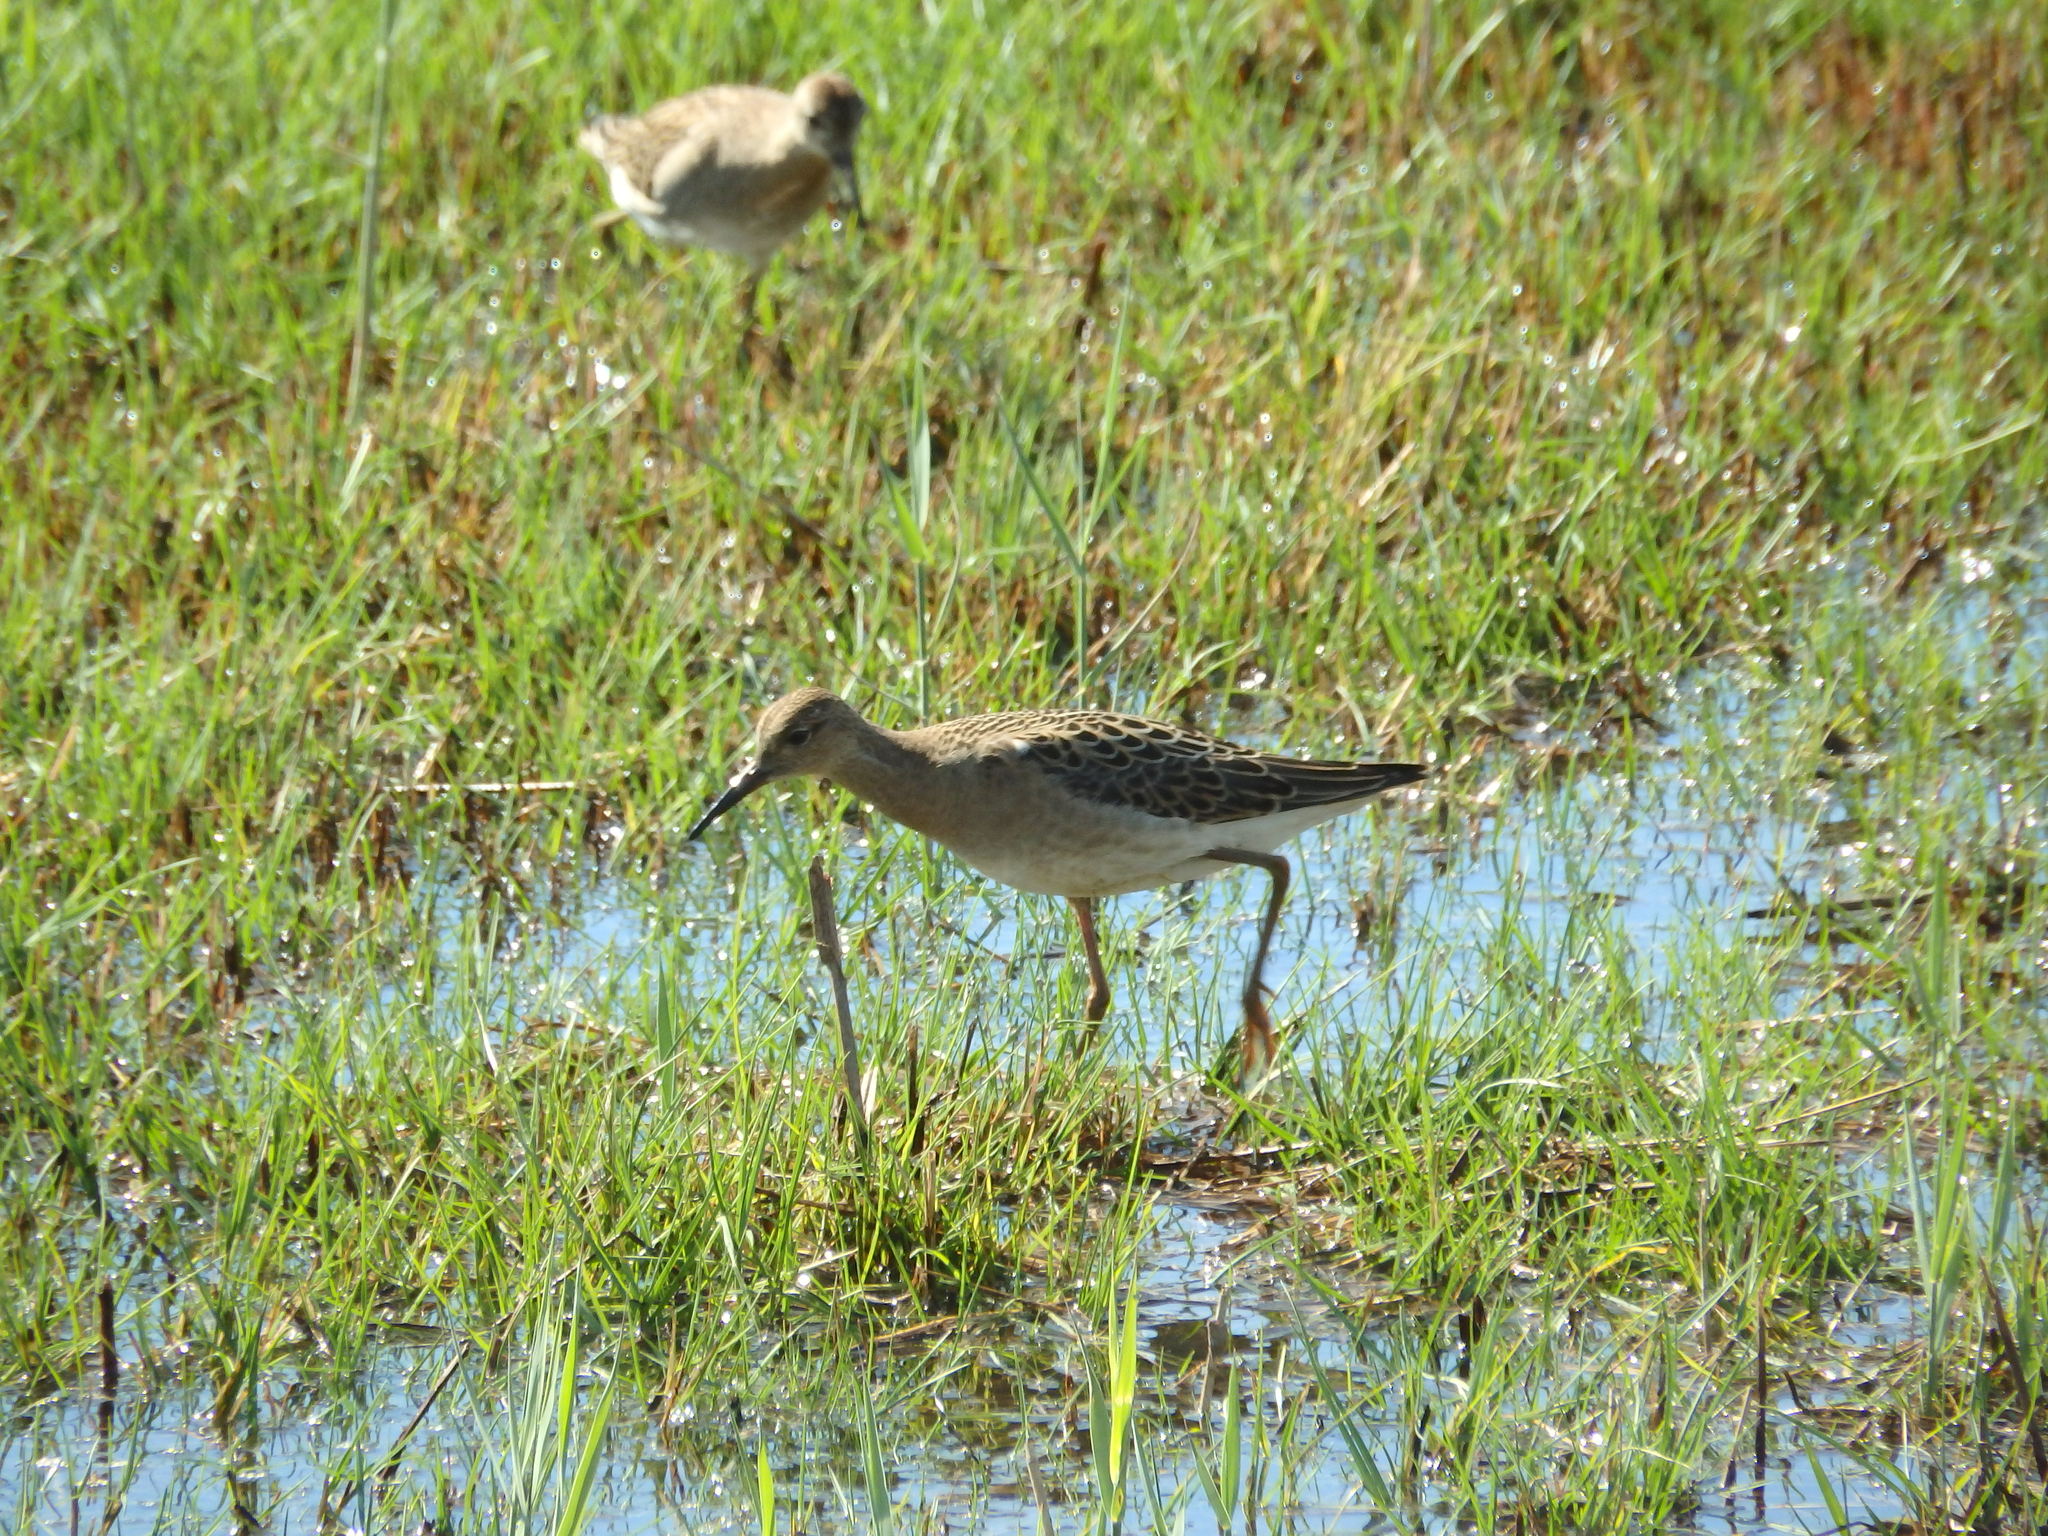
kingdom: Animalia
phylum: Chordata
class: Aves
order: Charadriiformes
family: Scolopacidae
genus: Calidris
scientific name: Calidris pugnax
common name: Ruff
